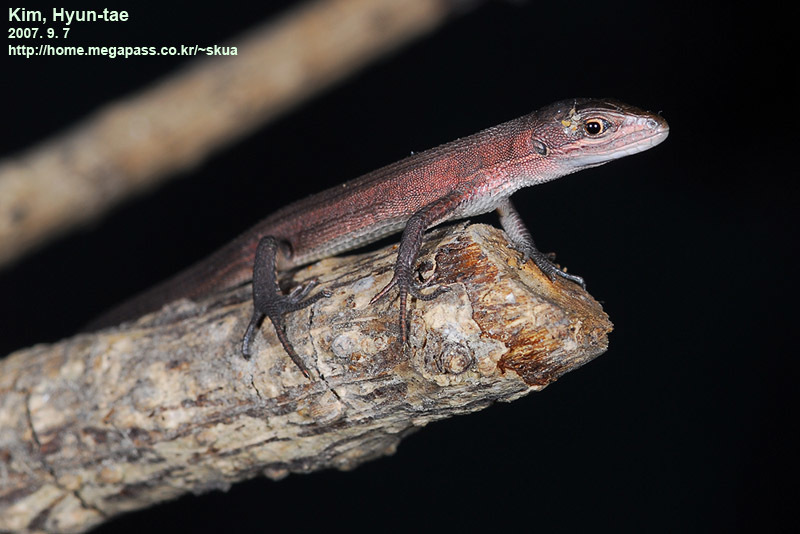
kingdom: Animalia
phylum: Chordata
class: Squamata
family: Lacertidae
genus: Takydromus
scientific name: Takydromus amurensis
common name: Amur grass lizard
